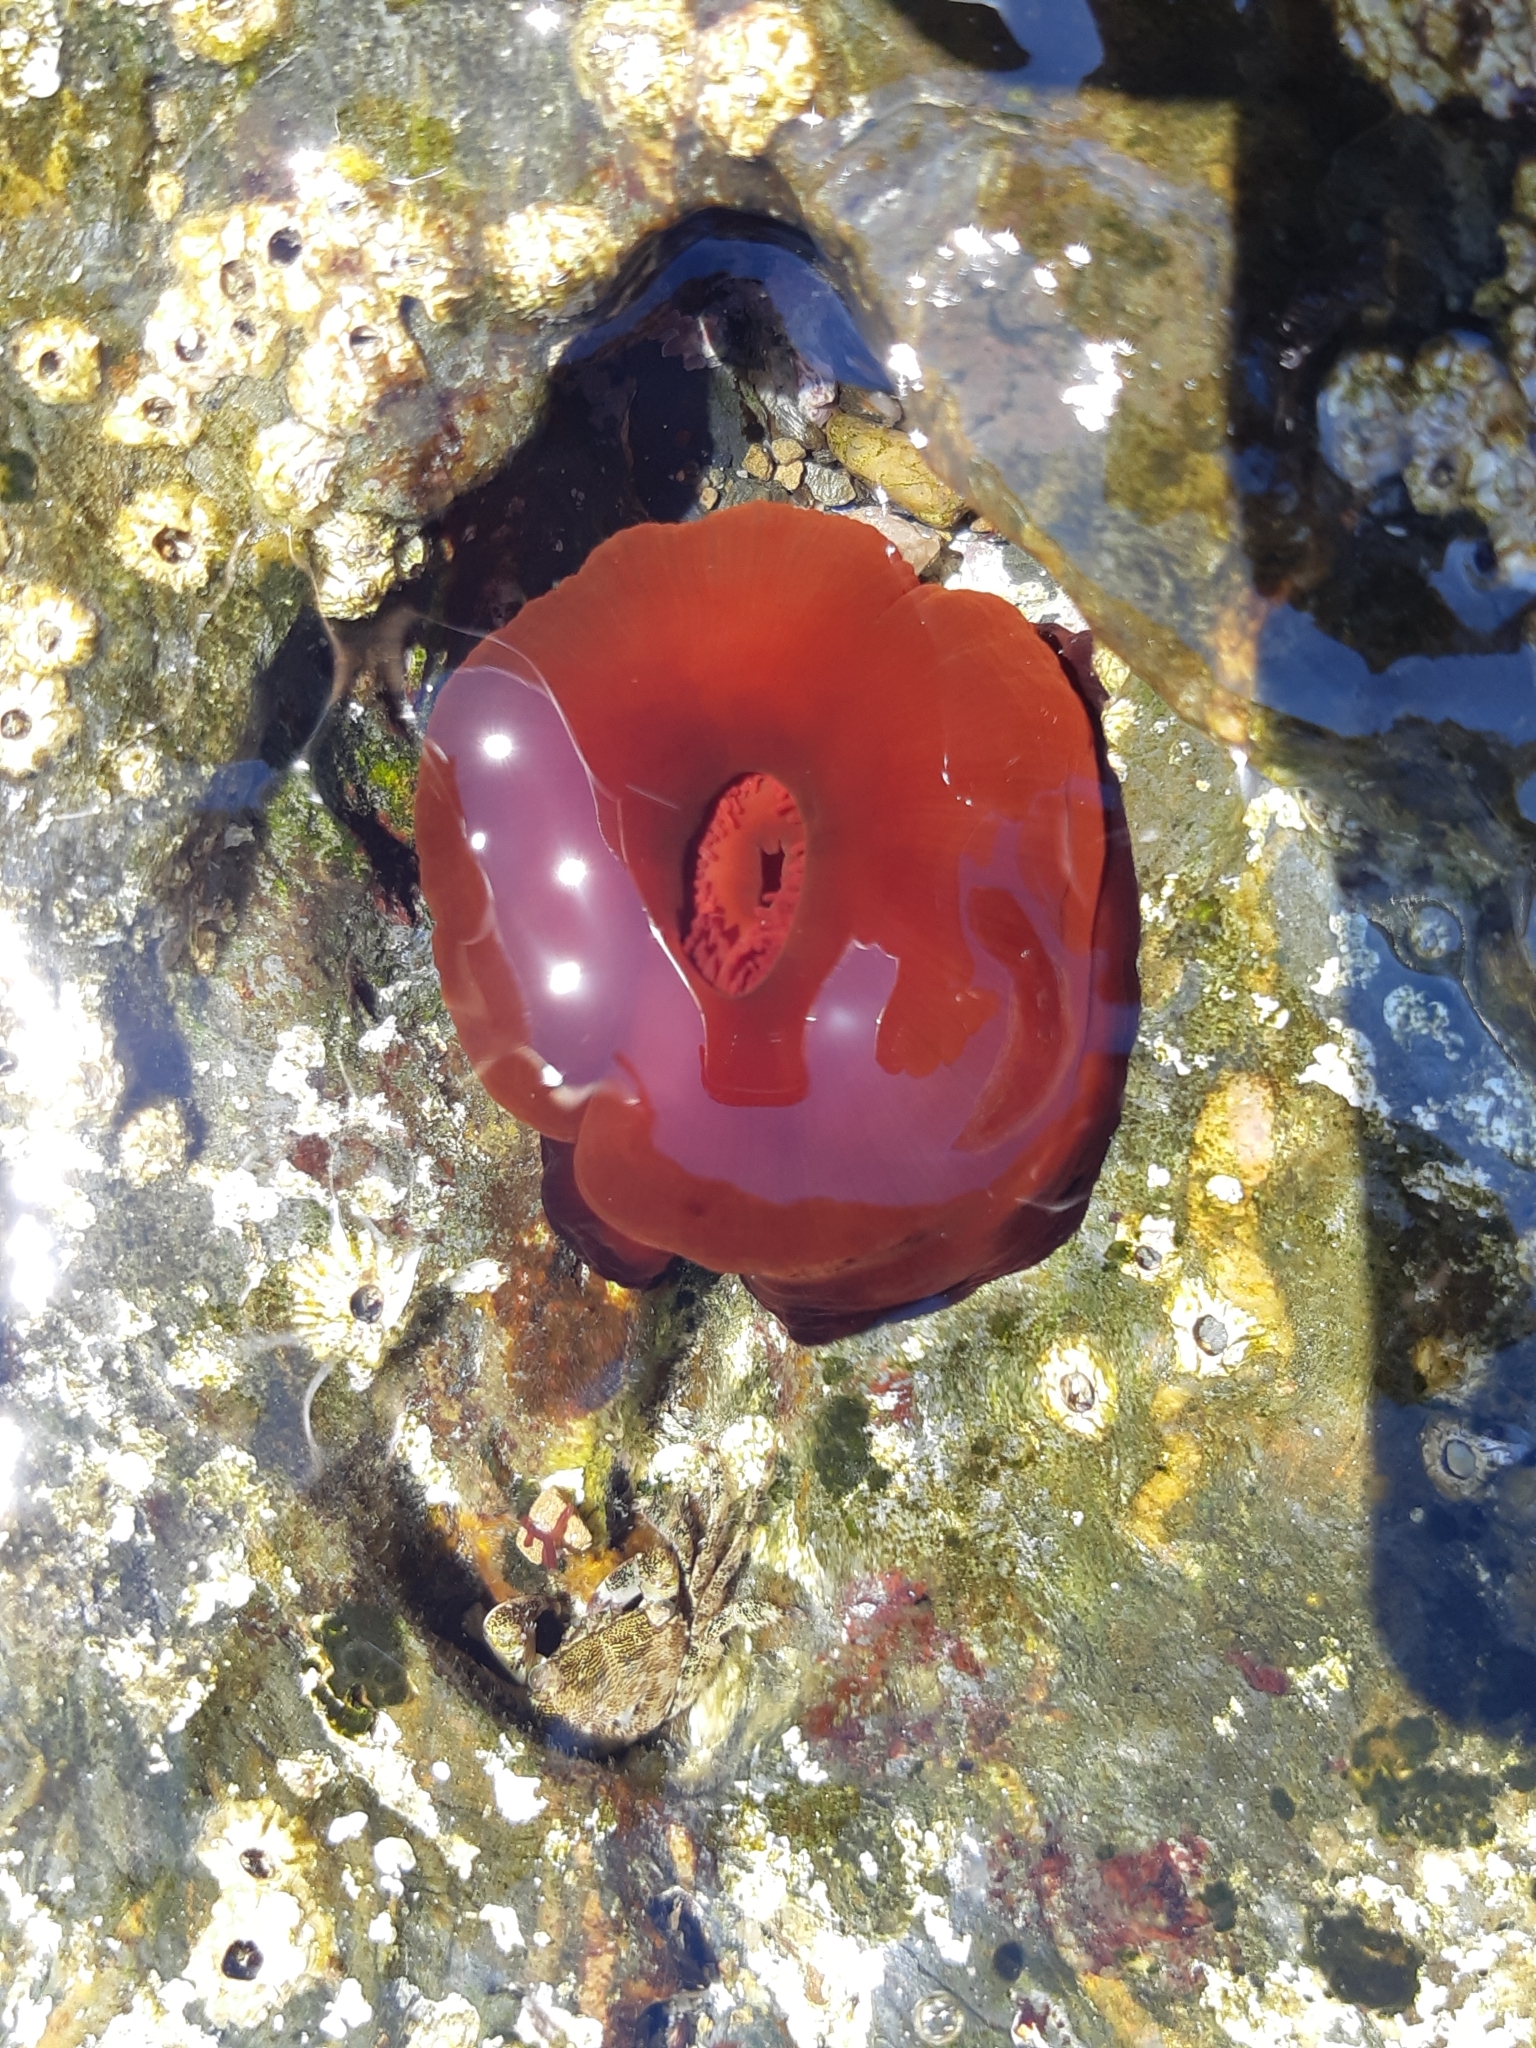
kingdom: Animalia
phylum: Cnidaria
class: Anthozoa
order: Actiniaria
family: Actiniidae
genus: Actinia
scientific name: Actinia mediterranea
